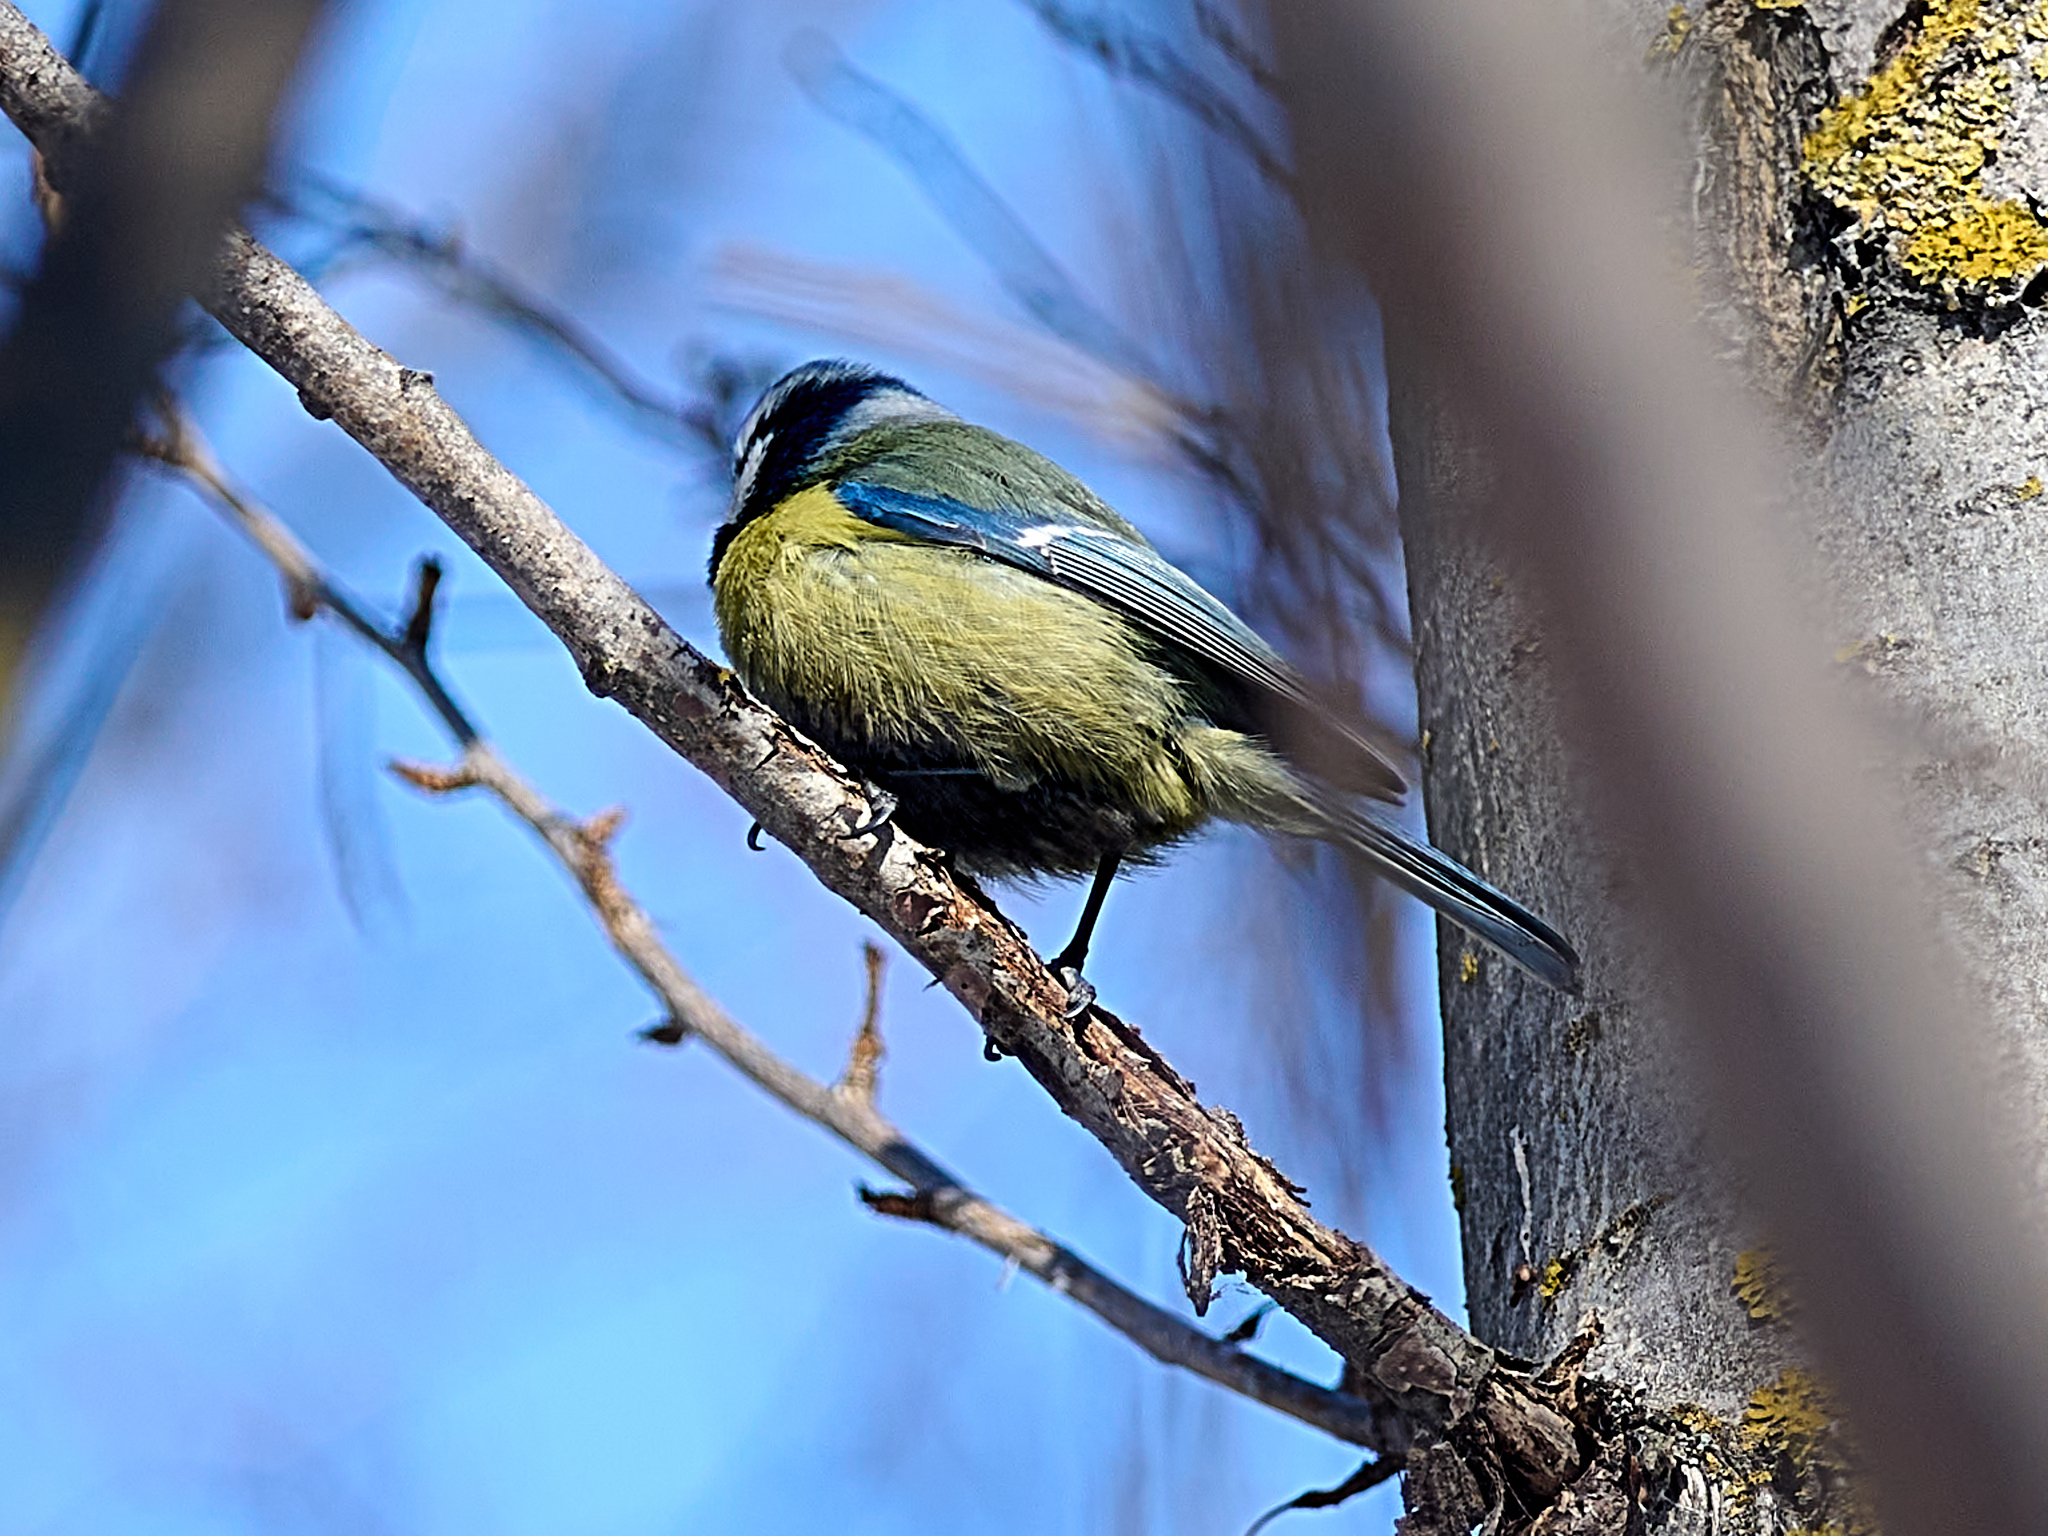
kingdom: Animalia
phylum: Chordata
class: Aves
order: Passeriformes
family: Paridae
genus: Cyanistes
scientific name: Cyanistes caeruleus
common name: Eurasian blue tit
